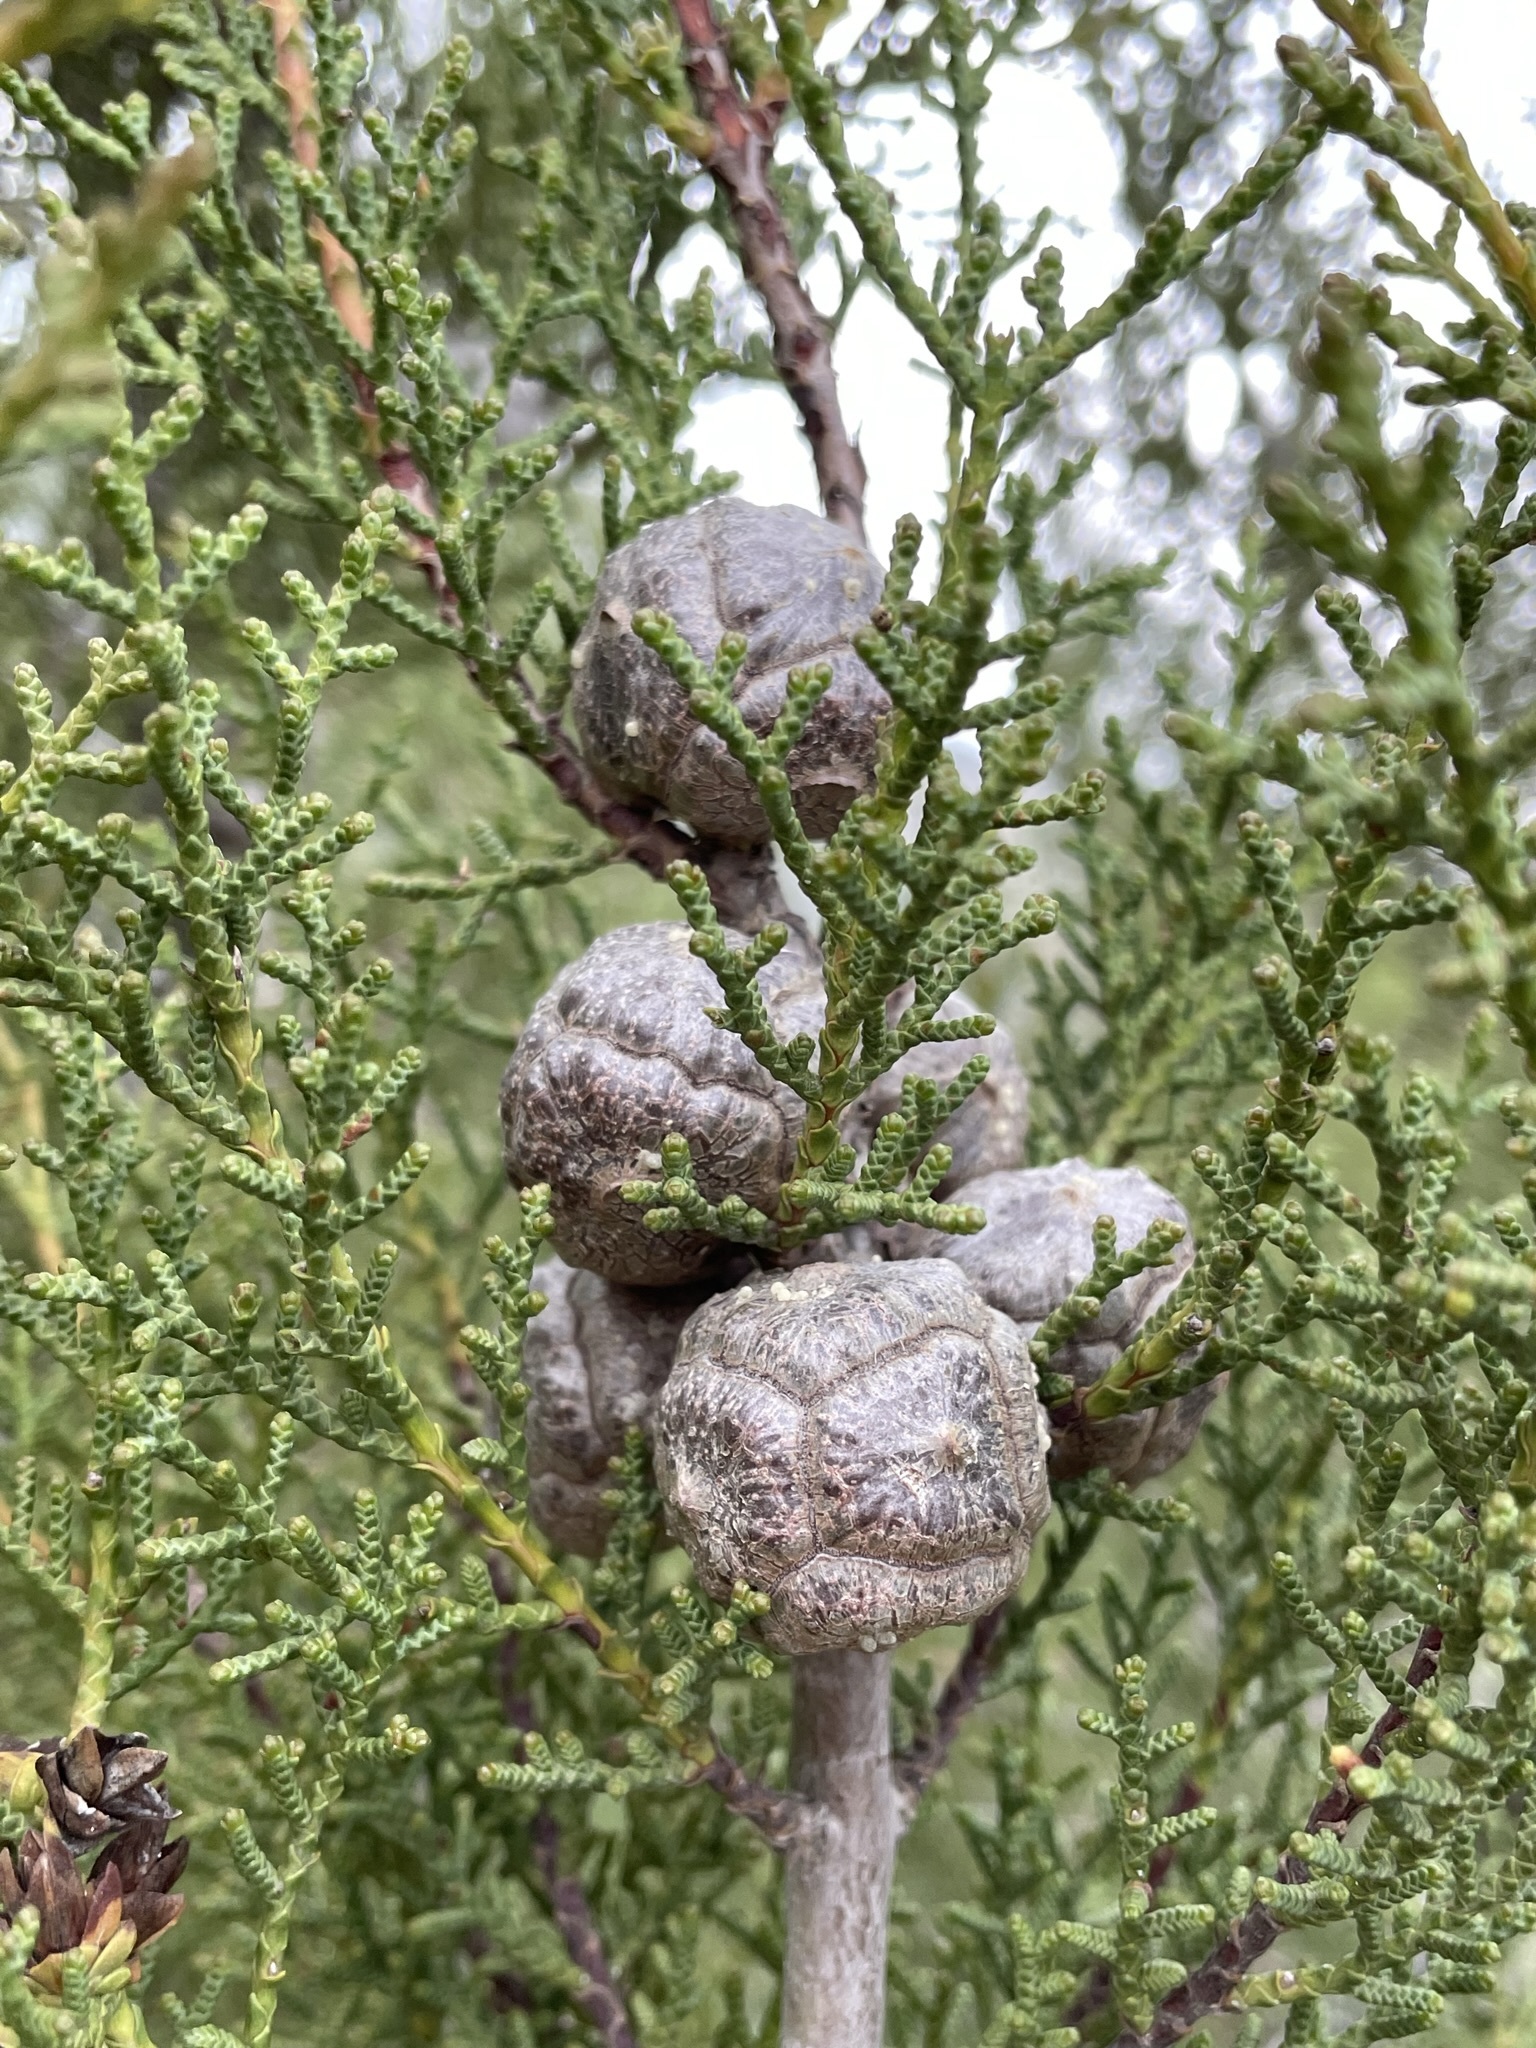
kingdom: Plantae
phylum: Tracheophyta
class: Pinopsida
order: Pinales
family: Cupressaceae
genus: Cupressus
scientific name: Cupressus guadalupensis
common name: Forbes cypress
